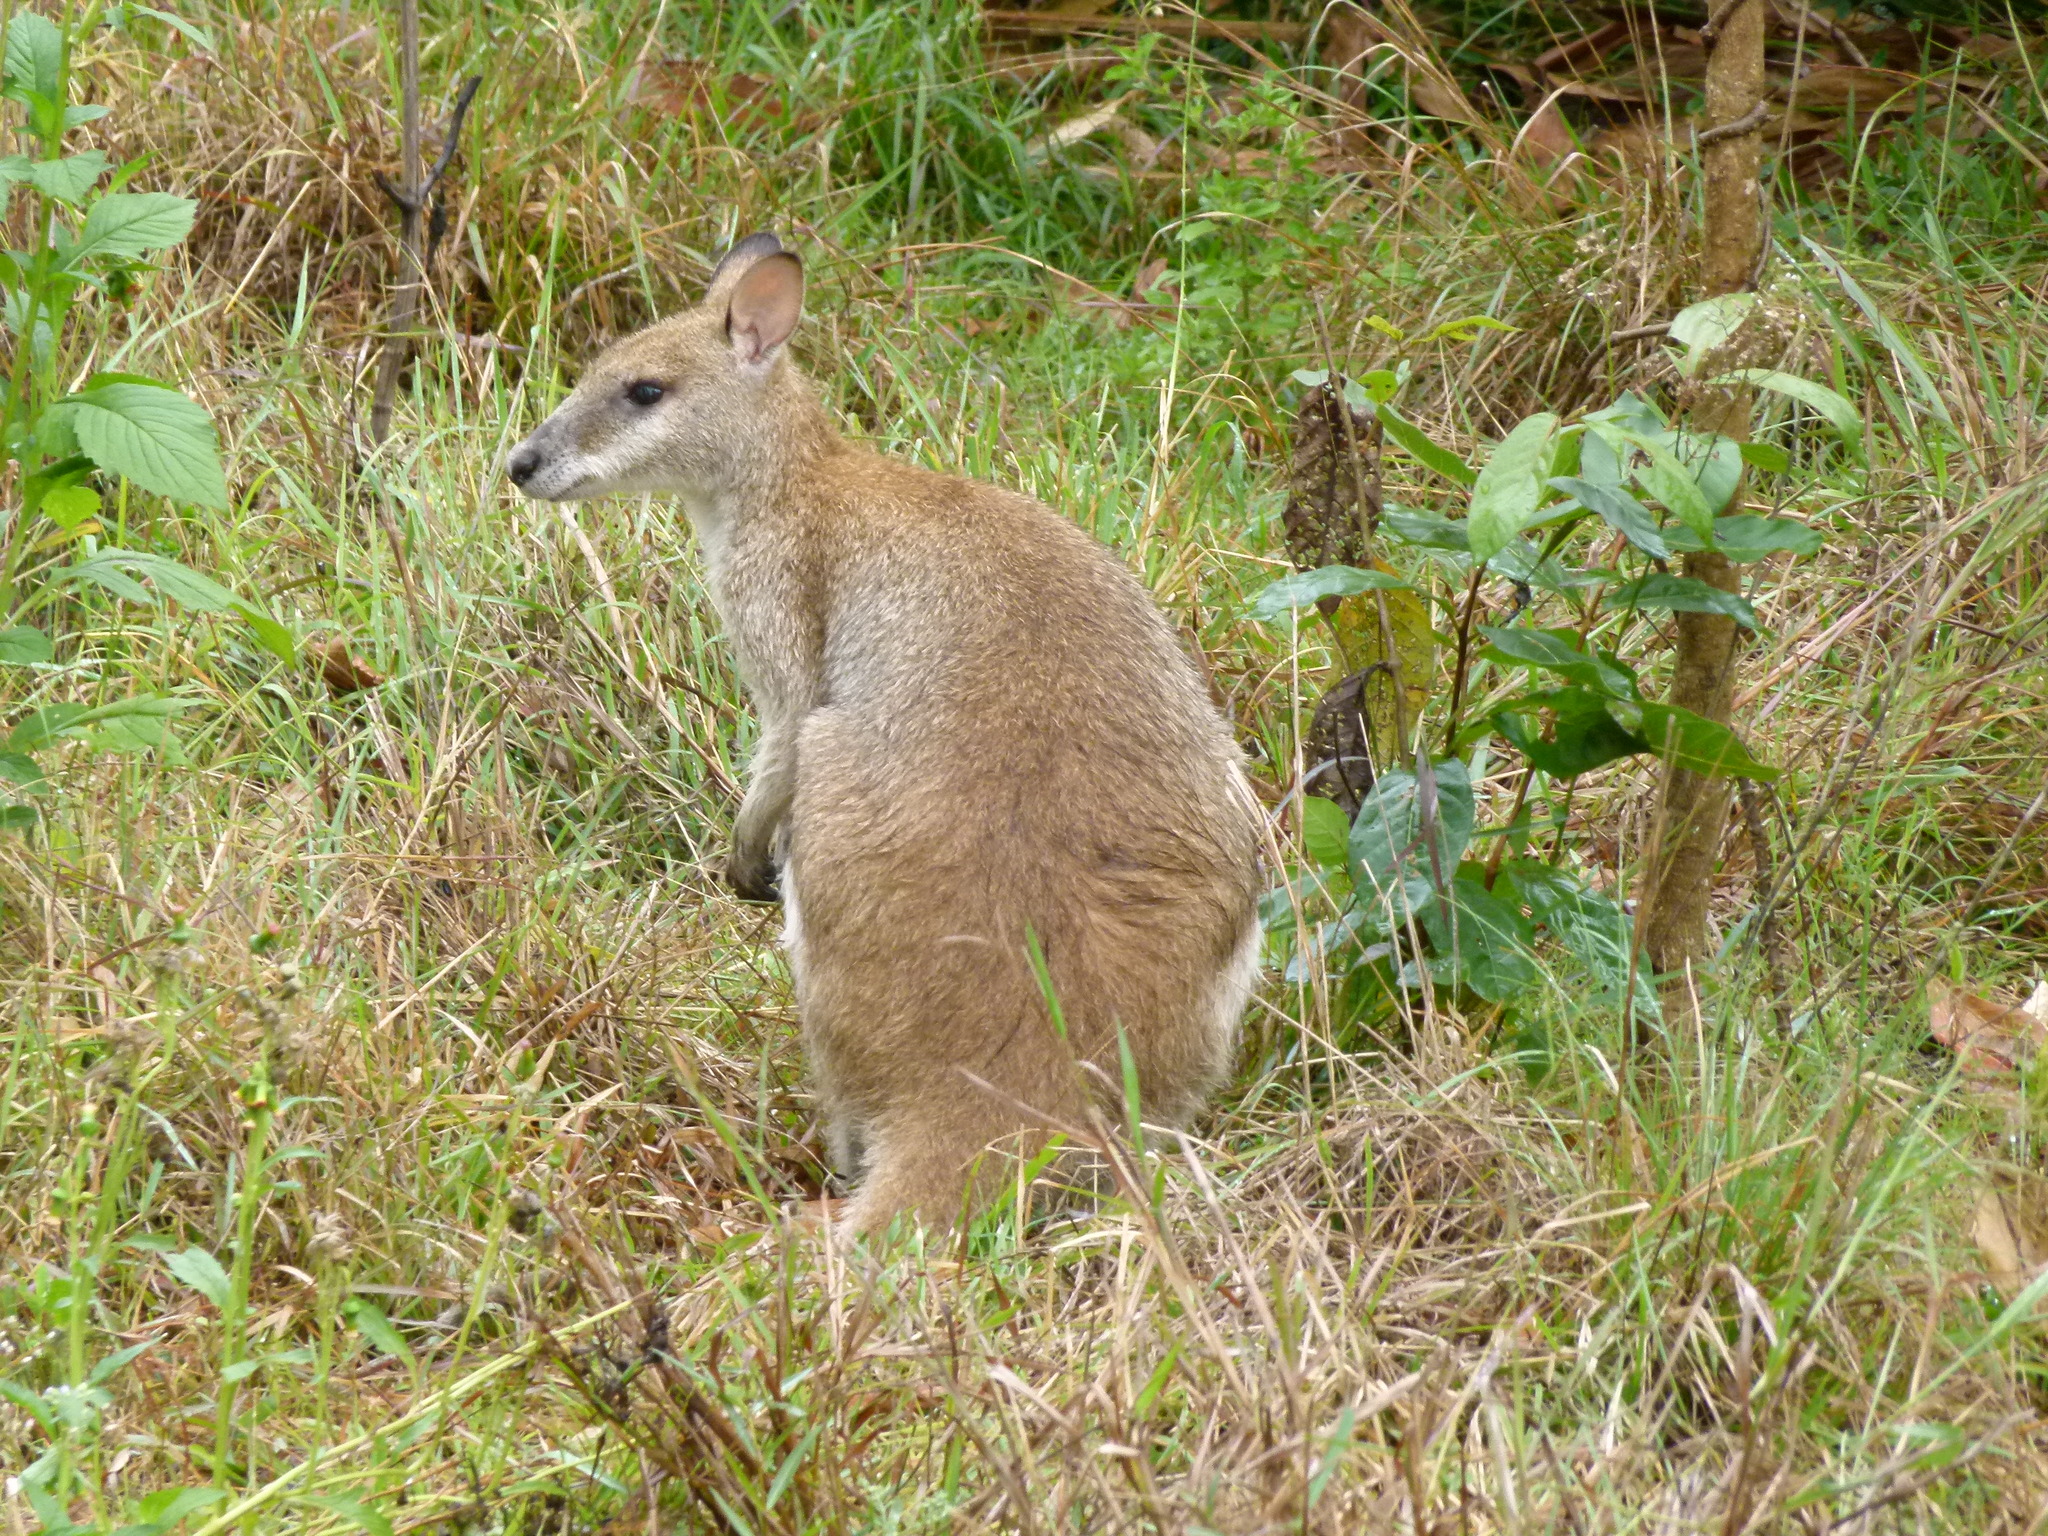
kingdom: Animalia
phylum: Chordata
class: Mammalia
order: Diprotodontia
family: Macropodidae
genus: Macropus
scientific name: Macropus agilis
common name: Agile wallaby
